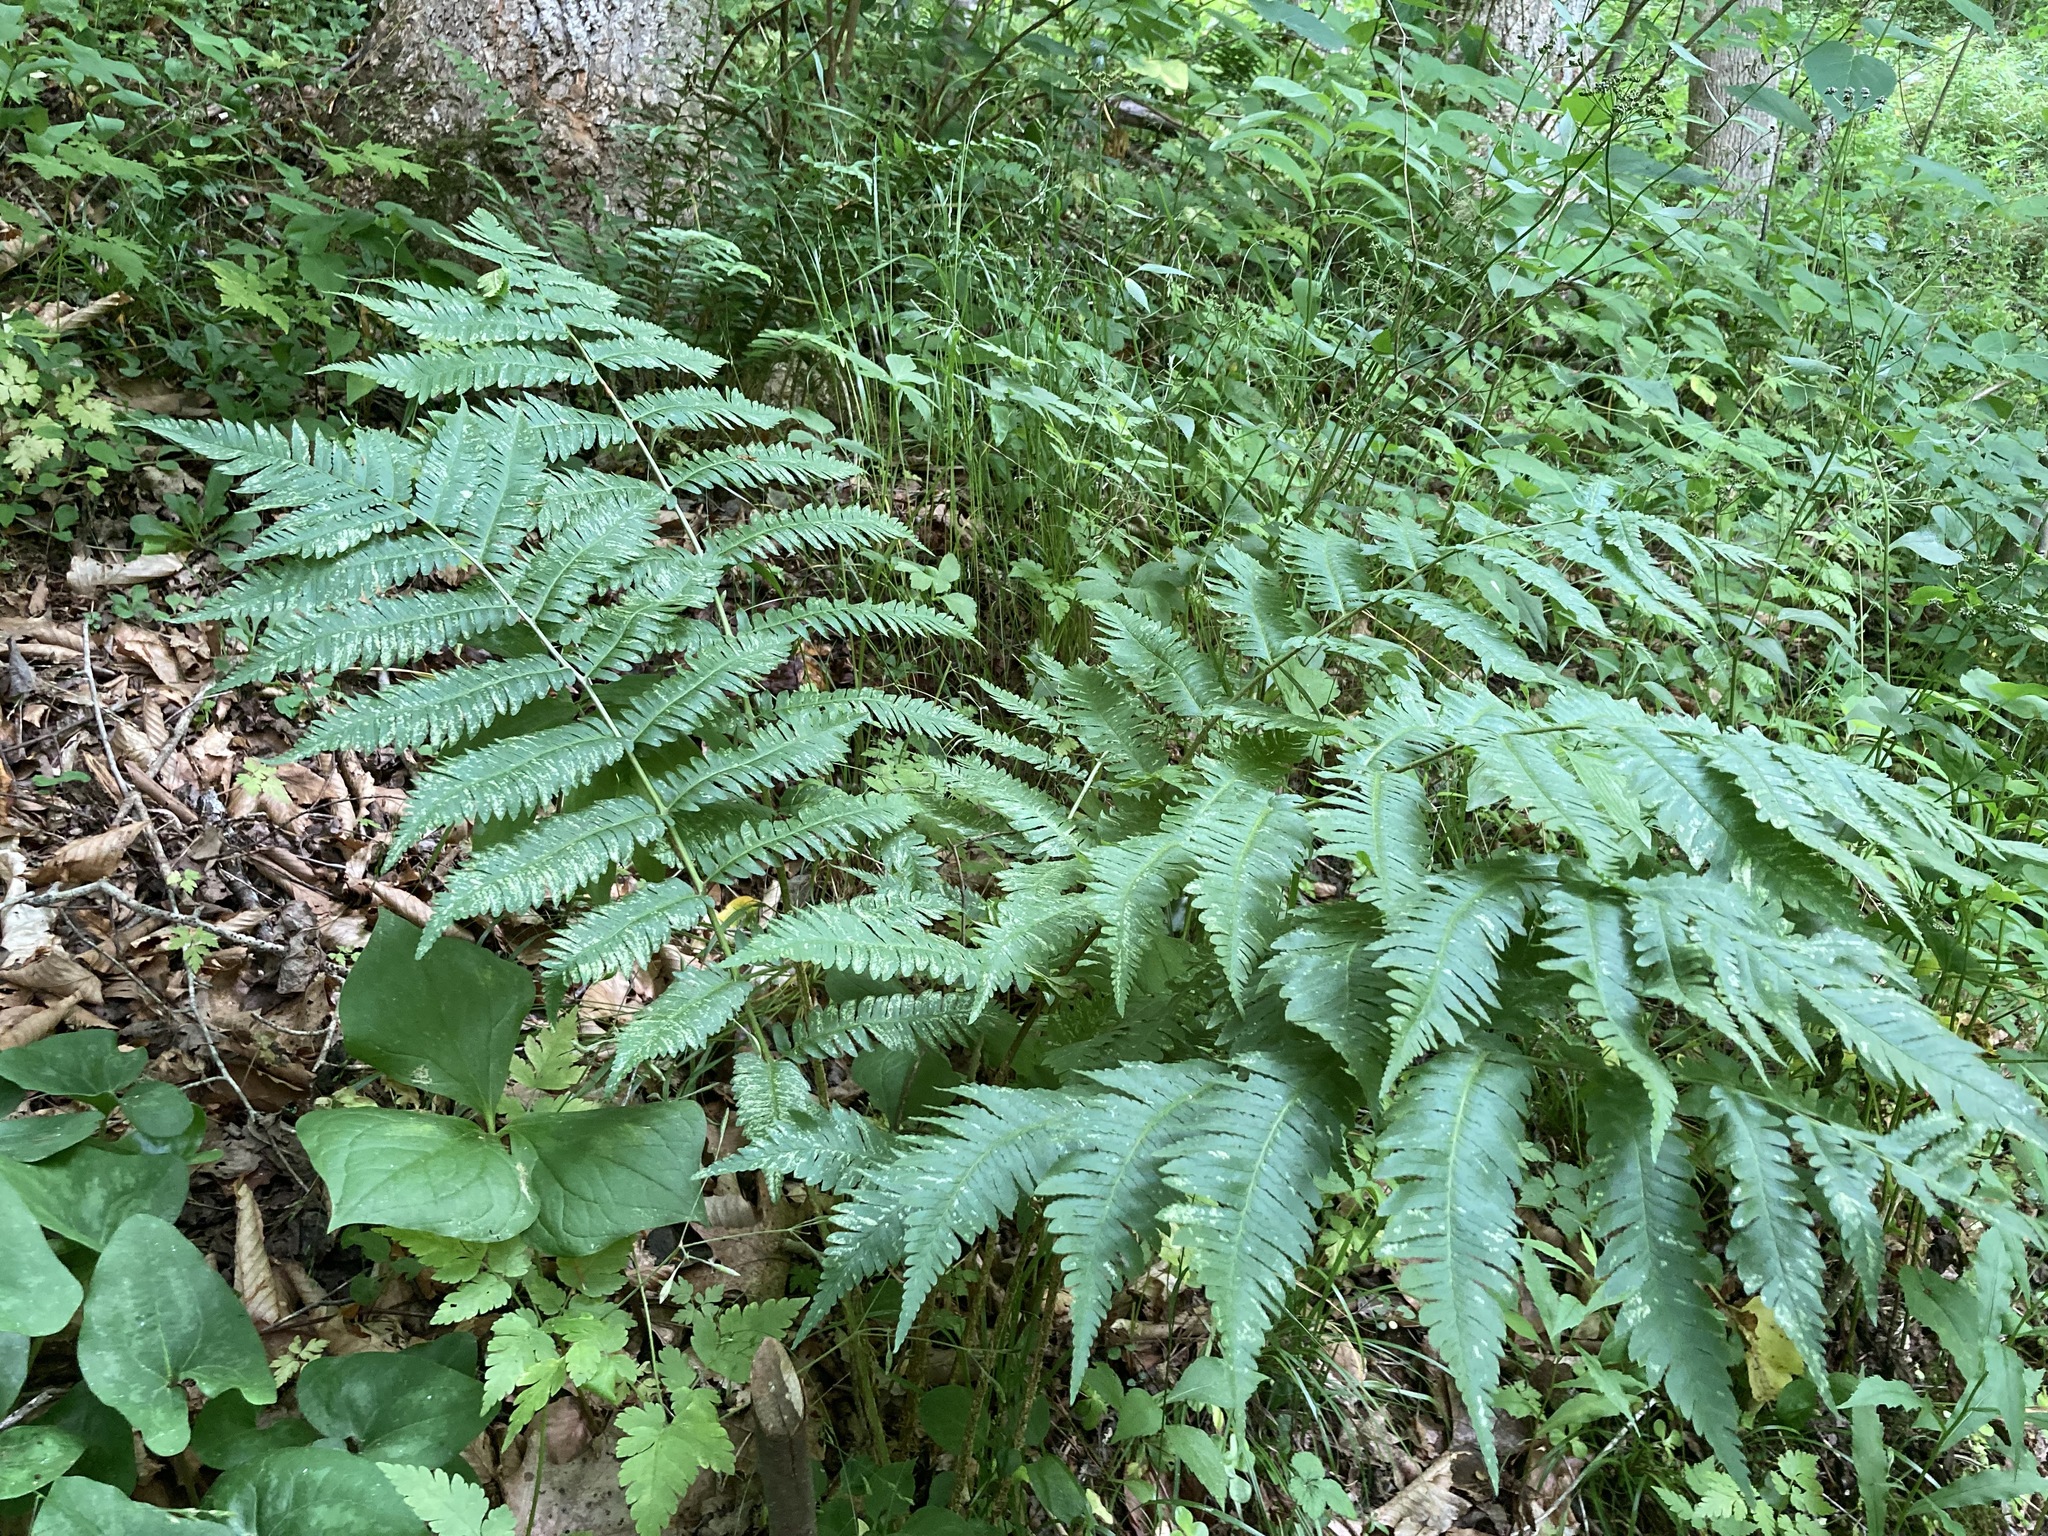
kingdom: Plantae
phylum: Tracheophyta
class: Polypodiopsida
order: Polypodiales
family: Dryopteridaceae
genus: Dryopteris
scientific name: Dryopteris goldieana
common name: Goldie's fern
